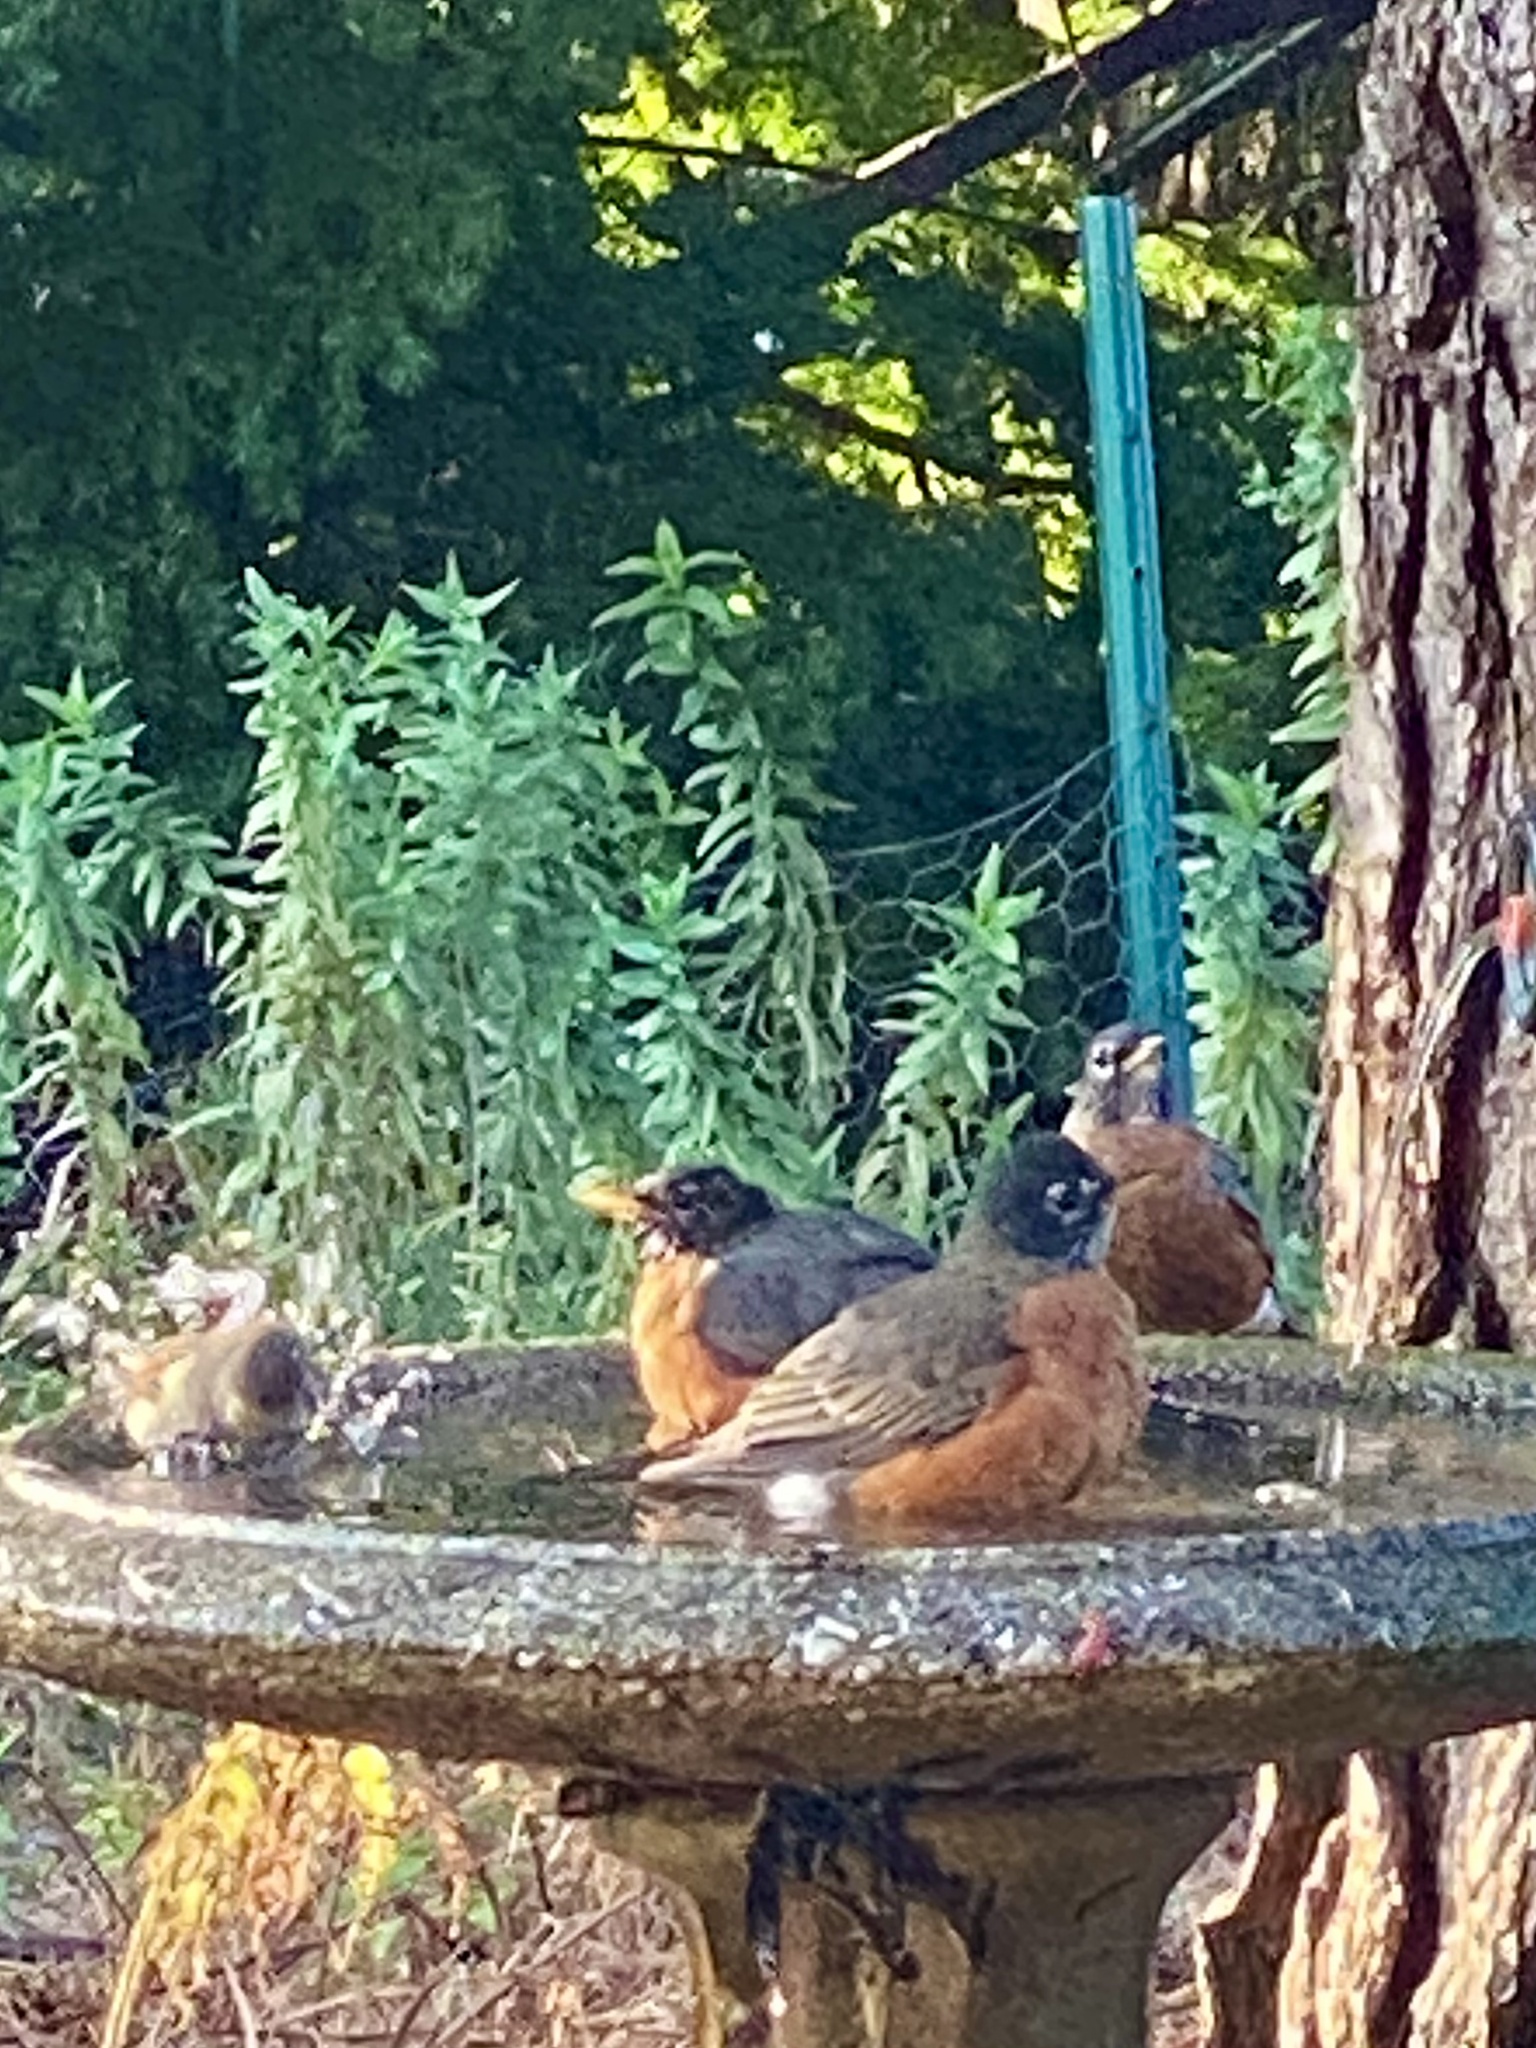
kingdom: Animalia
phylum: Chordata
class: Aves
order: Passeriformes
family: Turdidae
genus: Turdus
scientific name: Turdus migratorius
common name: American robin
